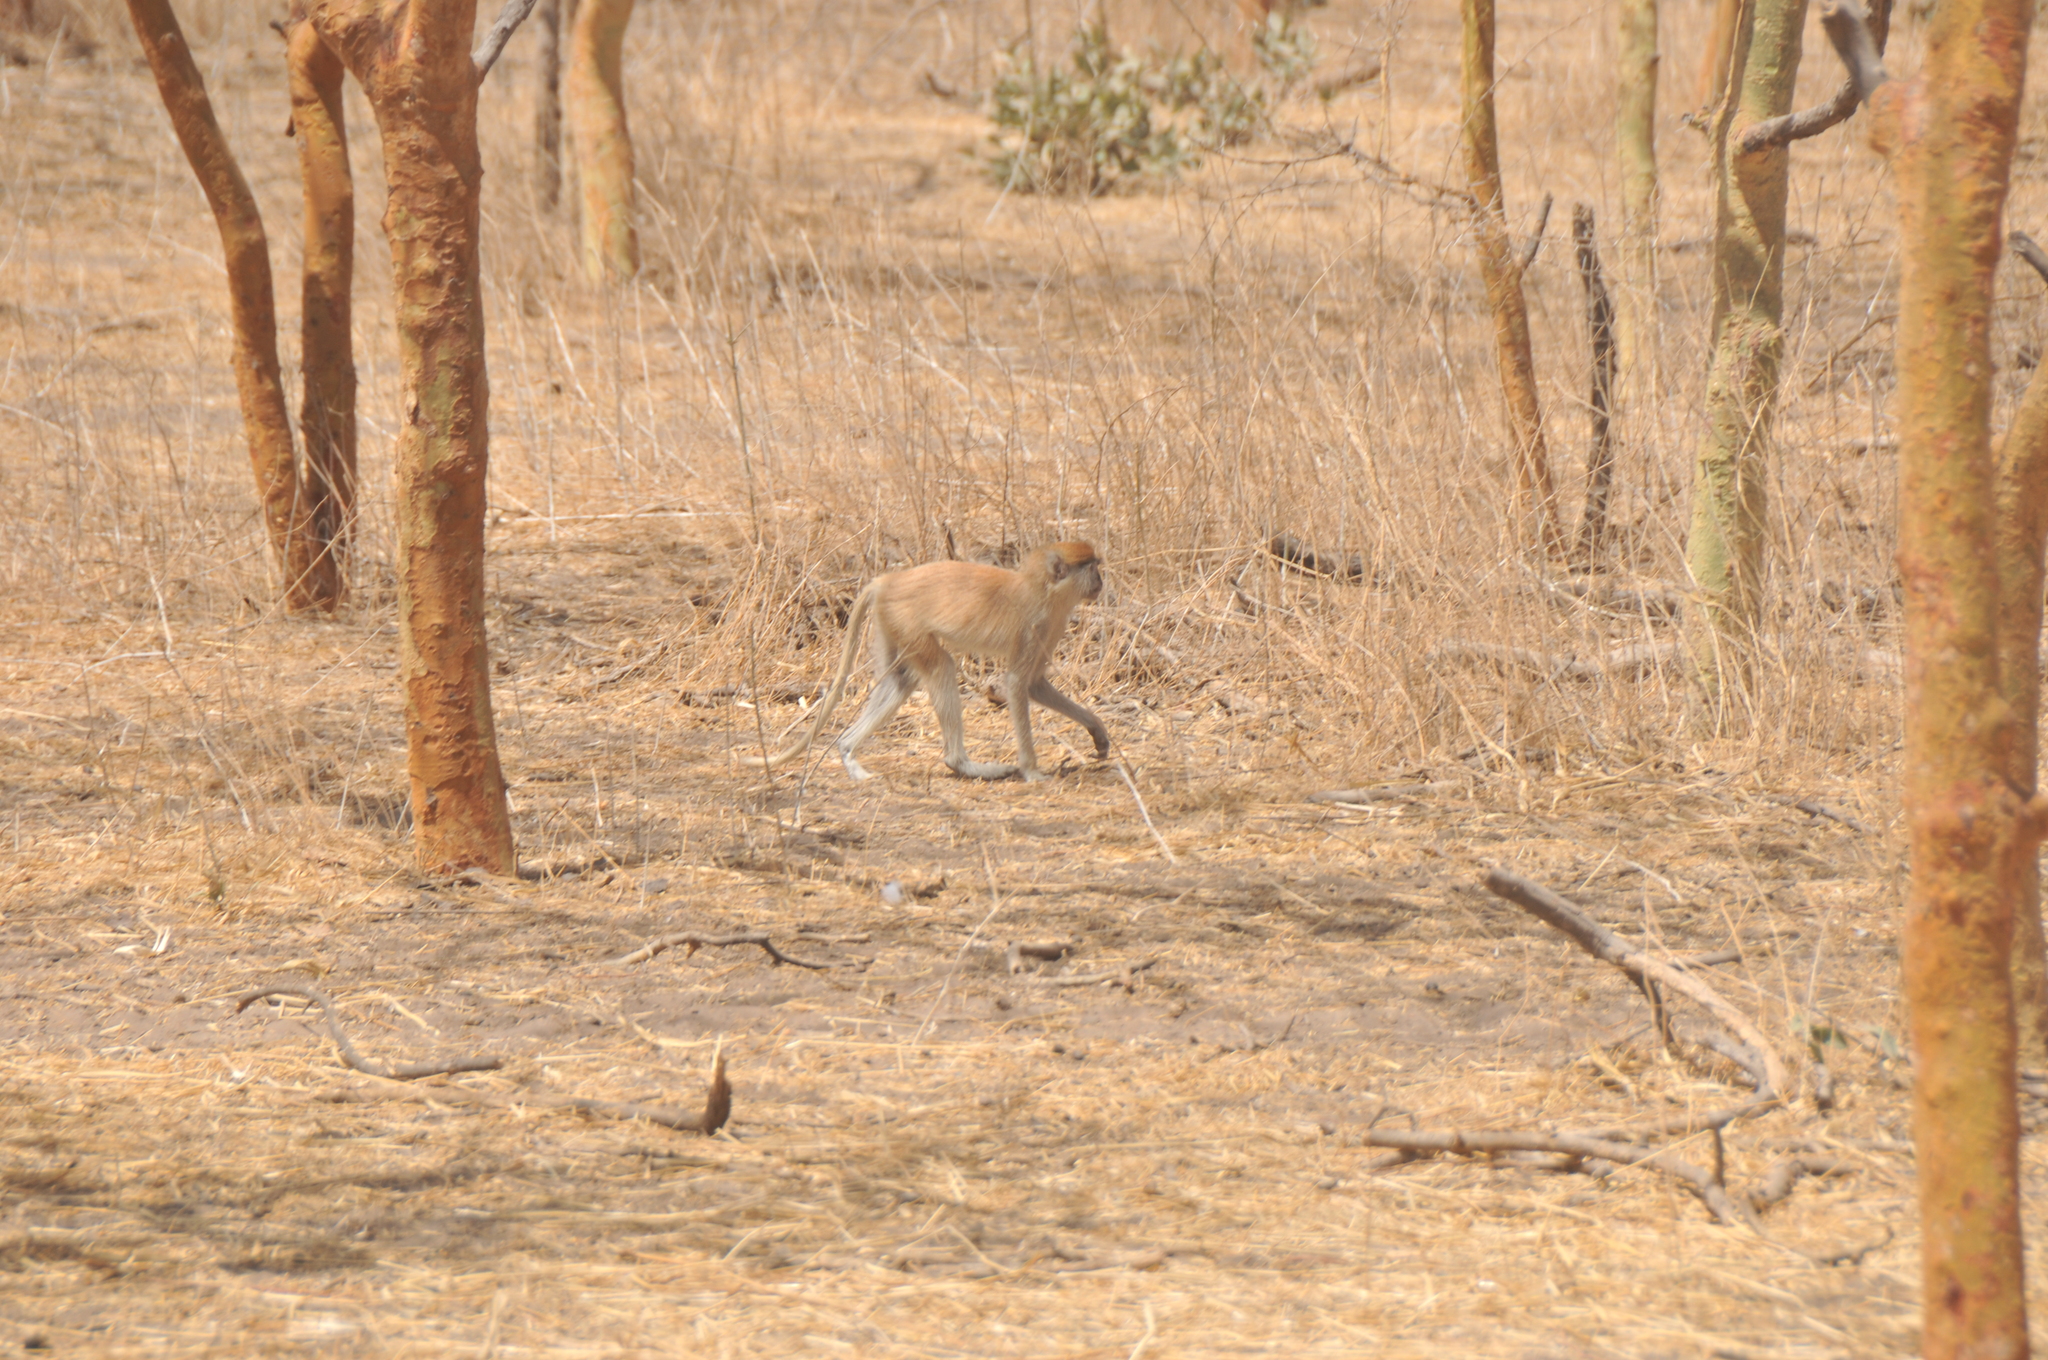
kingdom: Animalia
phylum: Chordata
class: Mammalia
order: Primates
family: Cercopithecidae
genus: Erythrocebus
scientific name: Erythrocebus patas
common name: Patas monkey
